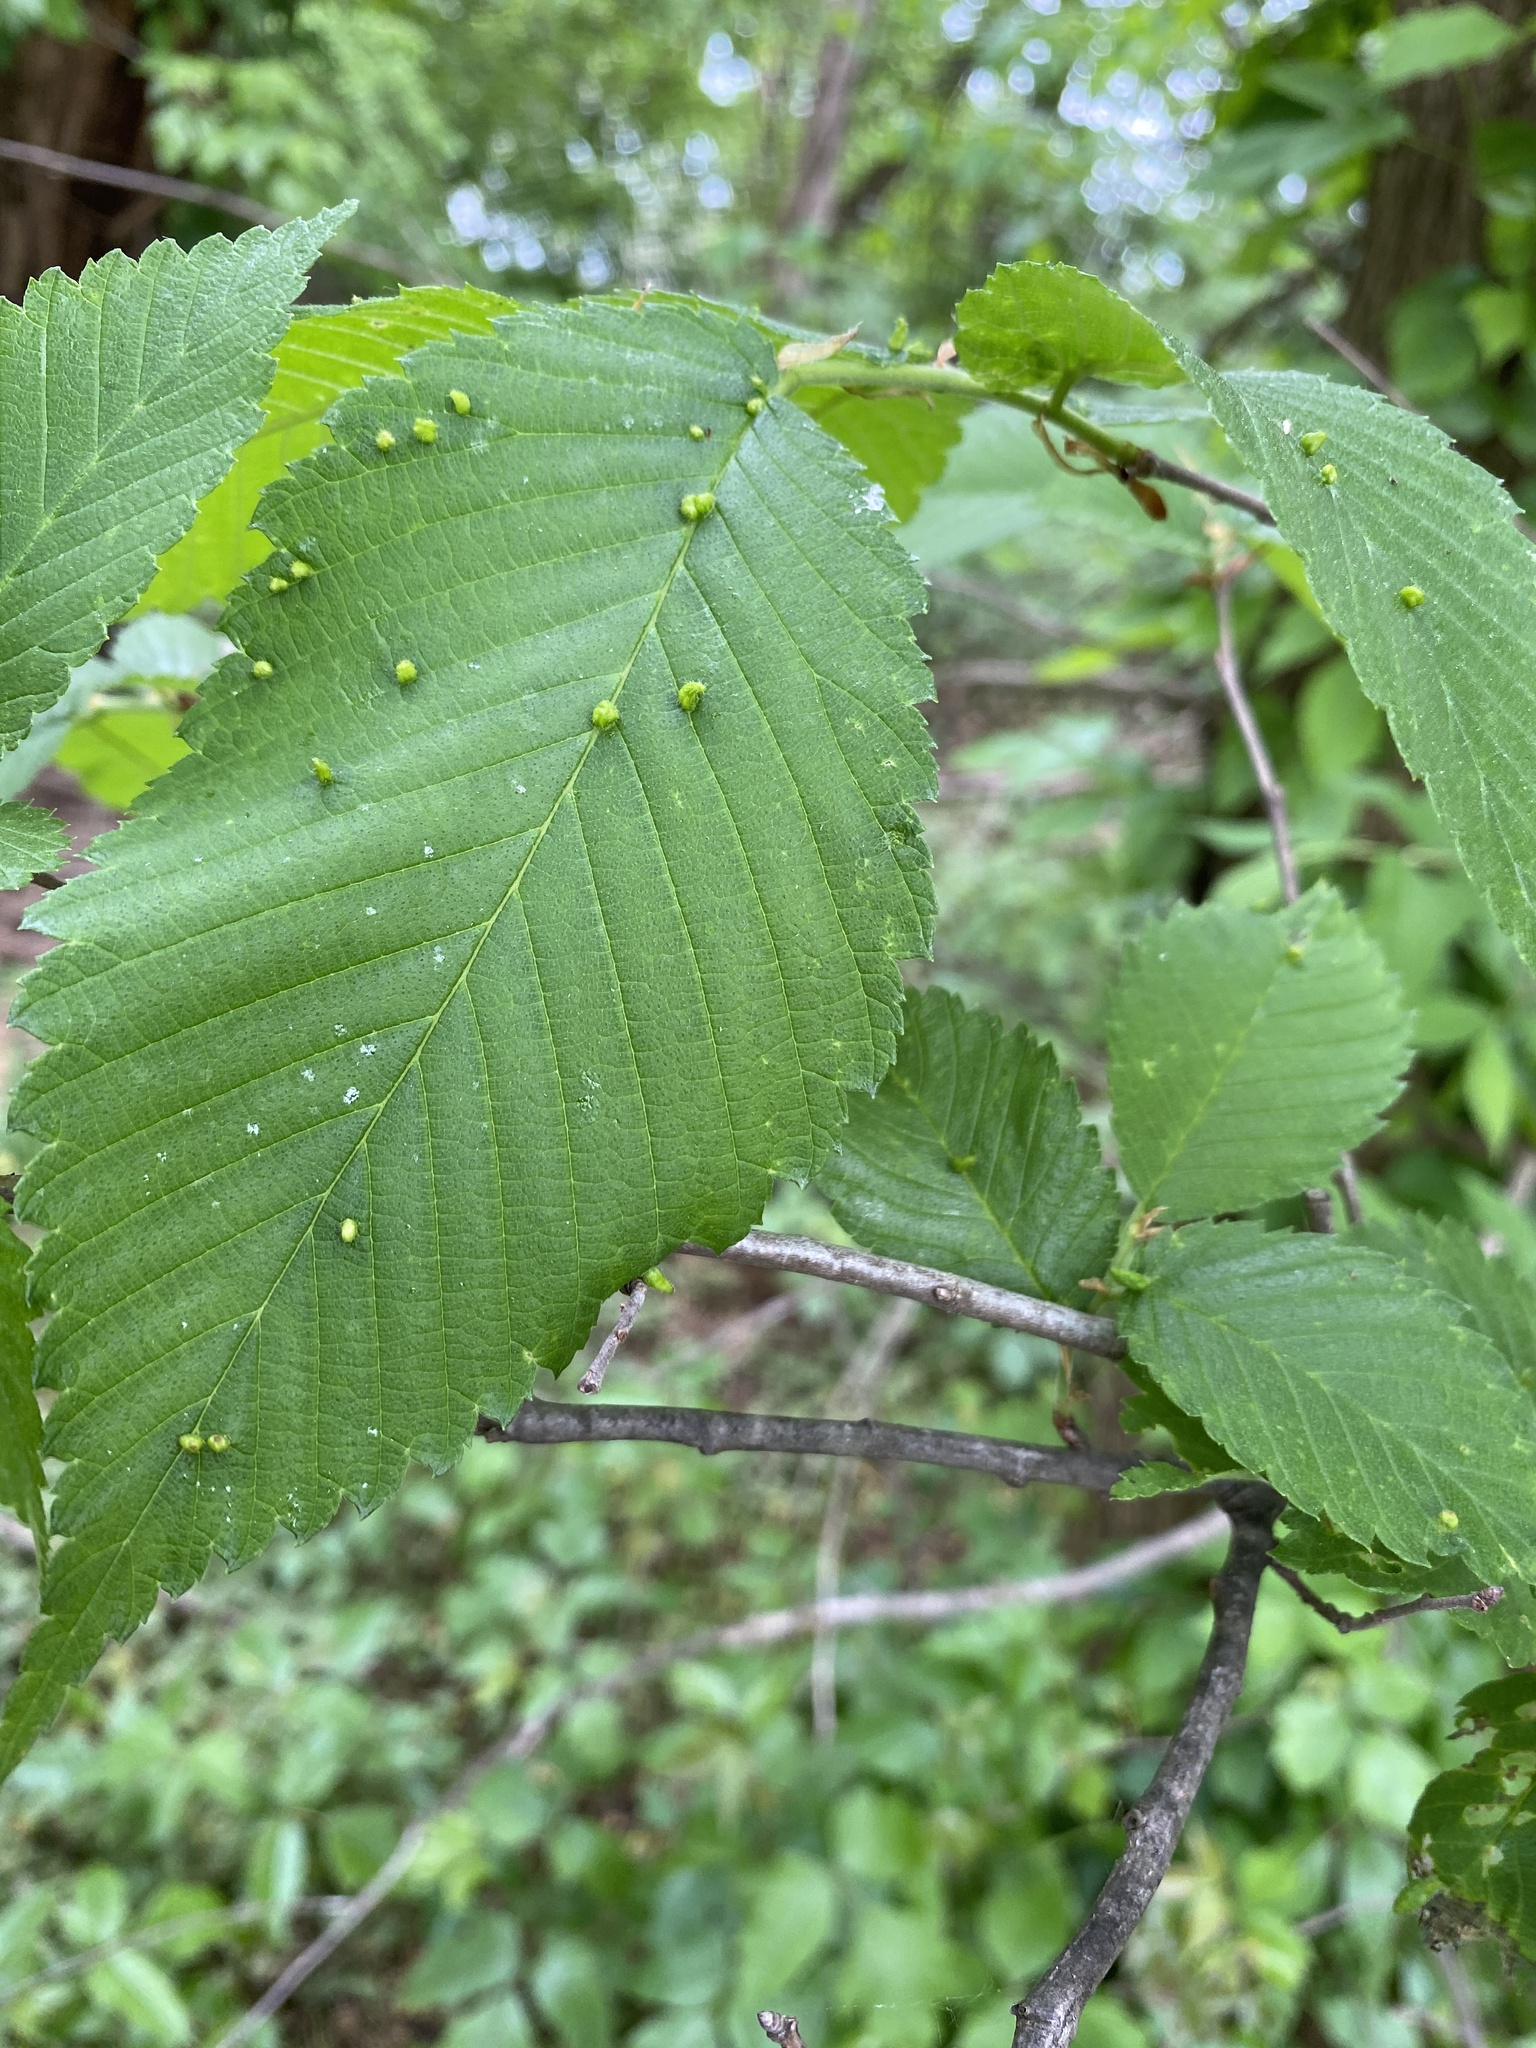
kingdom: Animalia
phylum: Arthropoda
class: Arachnida
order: Trombidiformes
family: Eriophyidae
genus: Aceria
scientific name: Aceria
